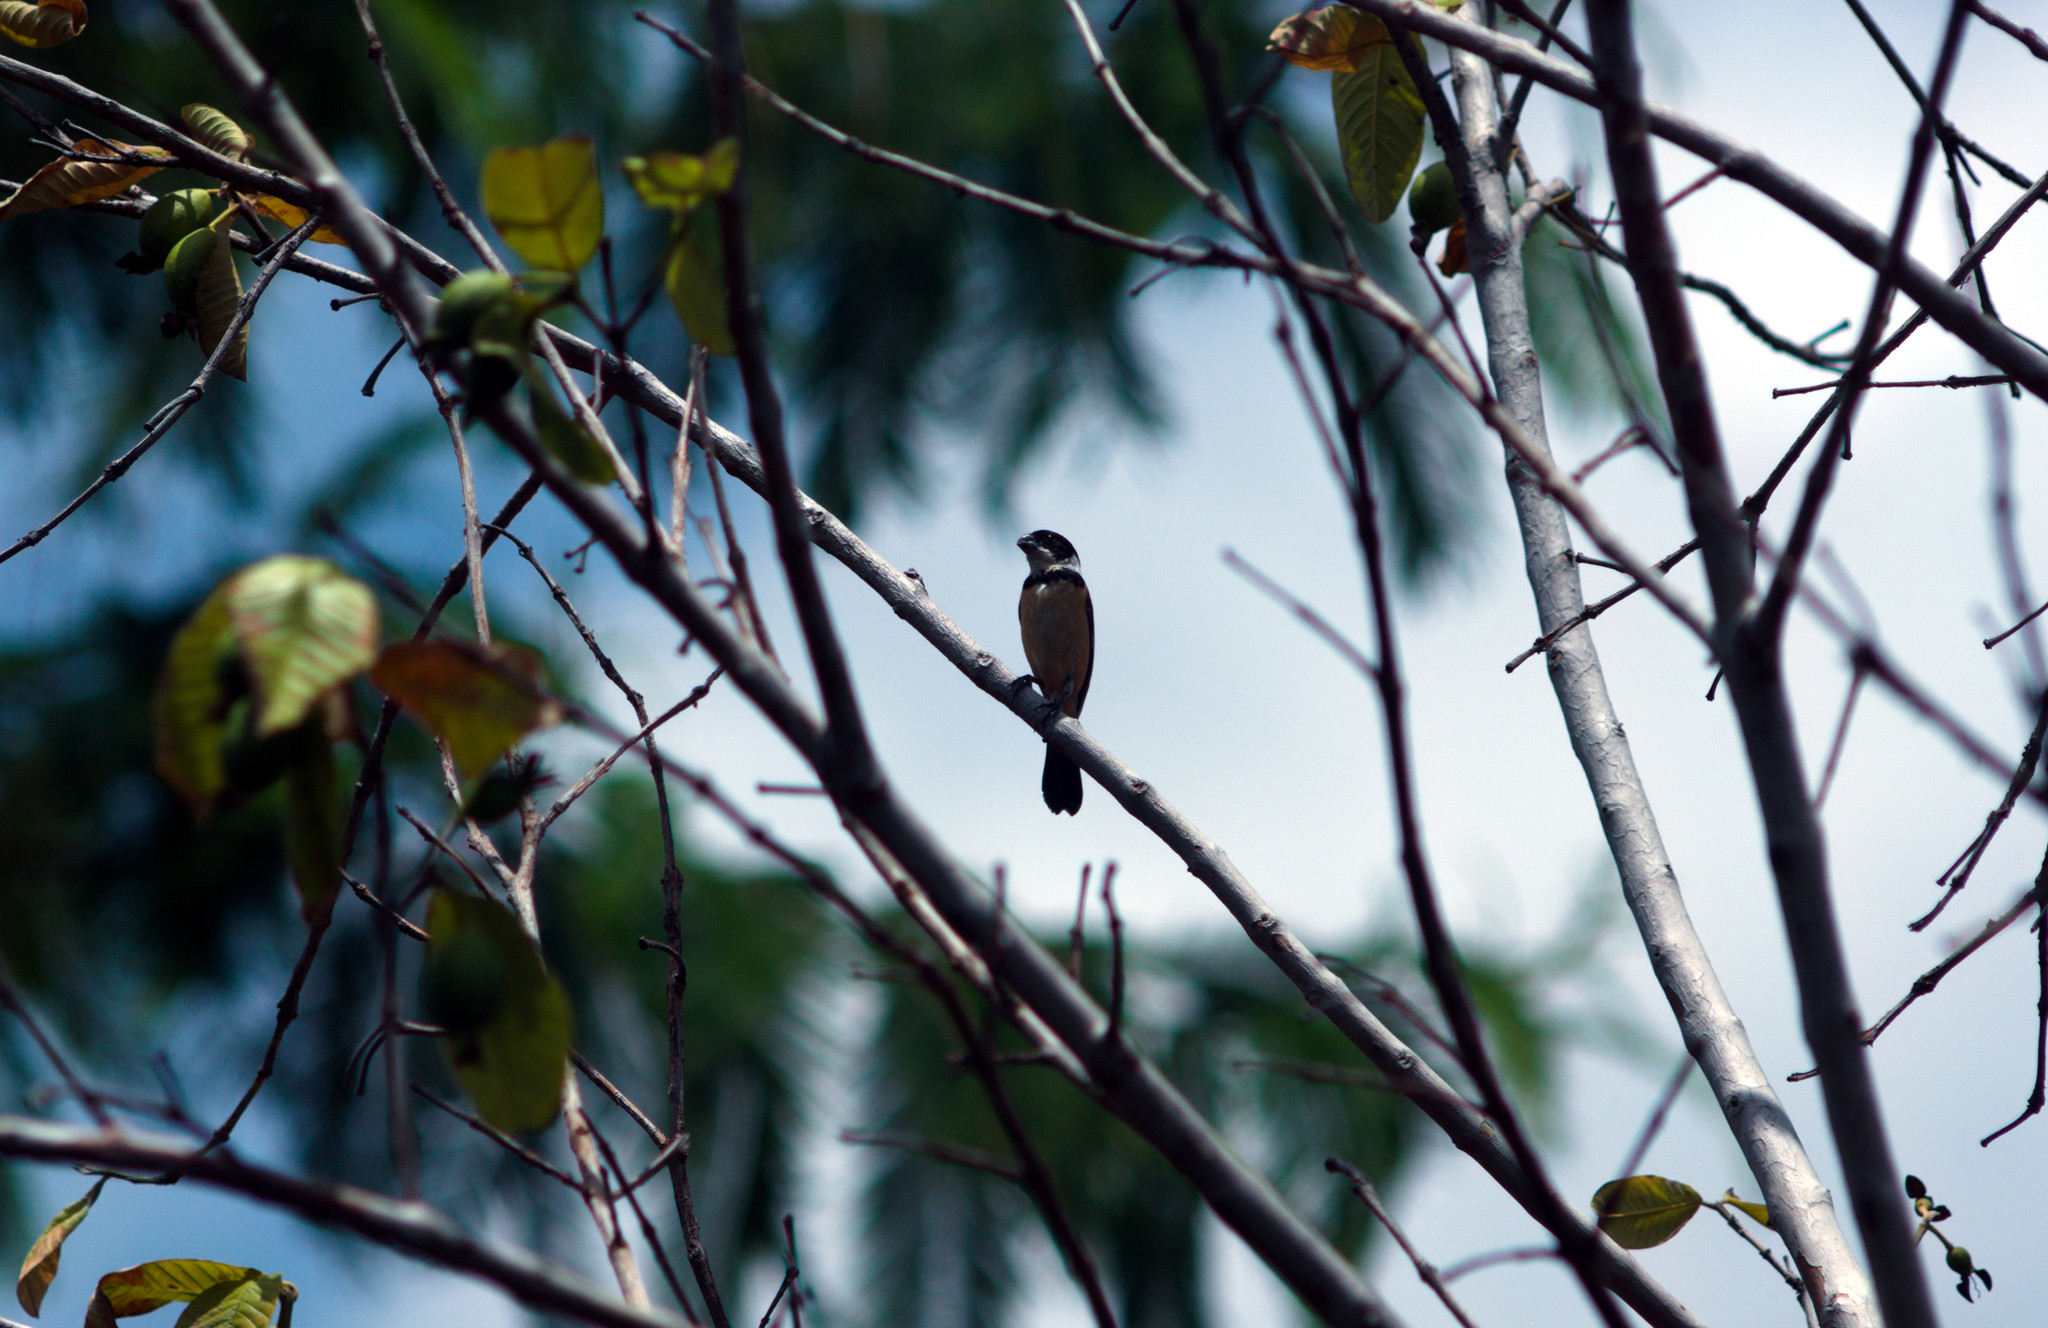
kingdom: Animalia
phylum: Chordata
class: Aves
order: Passeriformes
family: Thraupidae
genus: Sporophila
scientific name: Sporophila torqueola
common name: White-collared seedeater
